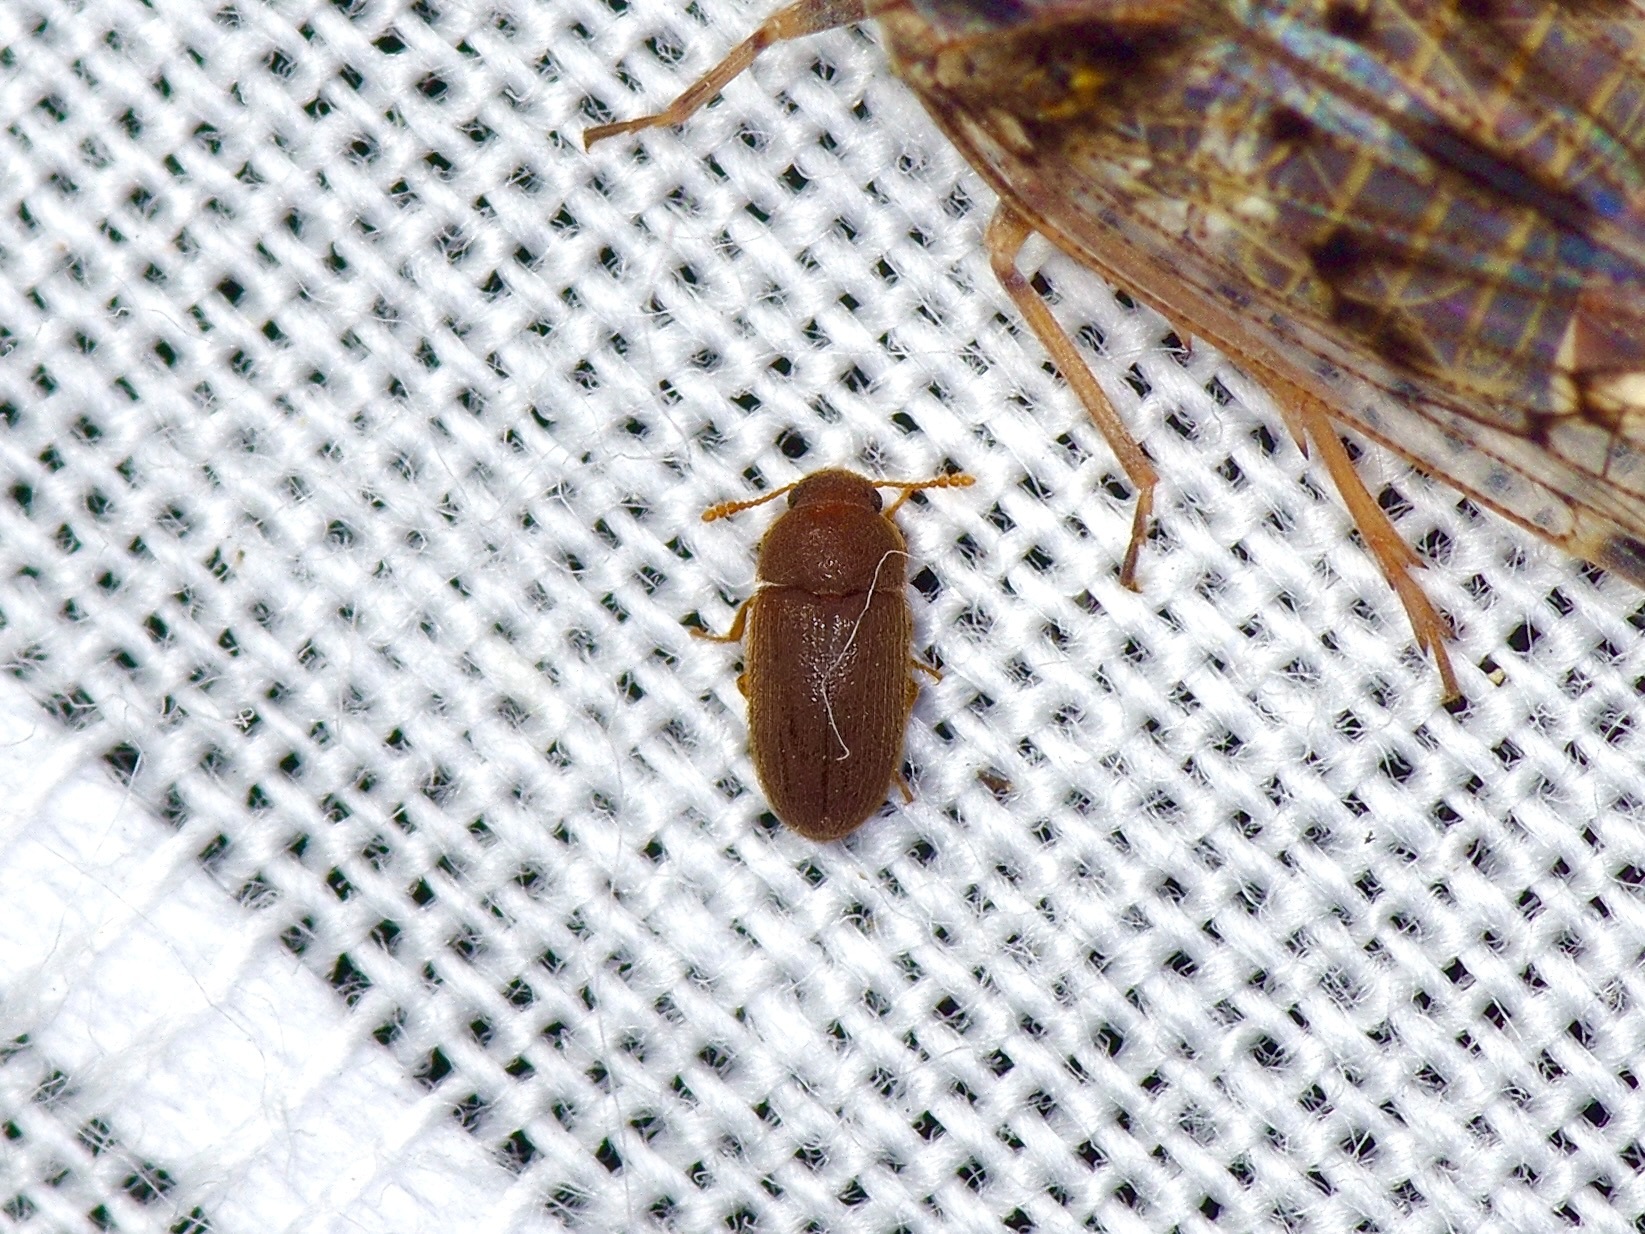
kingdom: Animalia
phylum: Arthropoda
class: Insecta
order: Coleoptera
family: Mycetophagidae
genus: Typhaea
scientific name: Typhaea stercorea
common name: Hairy fungus beetle
